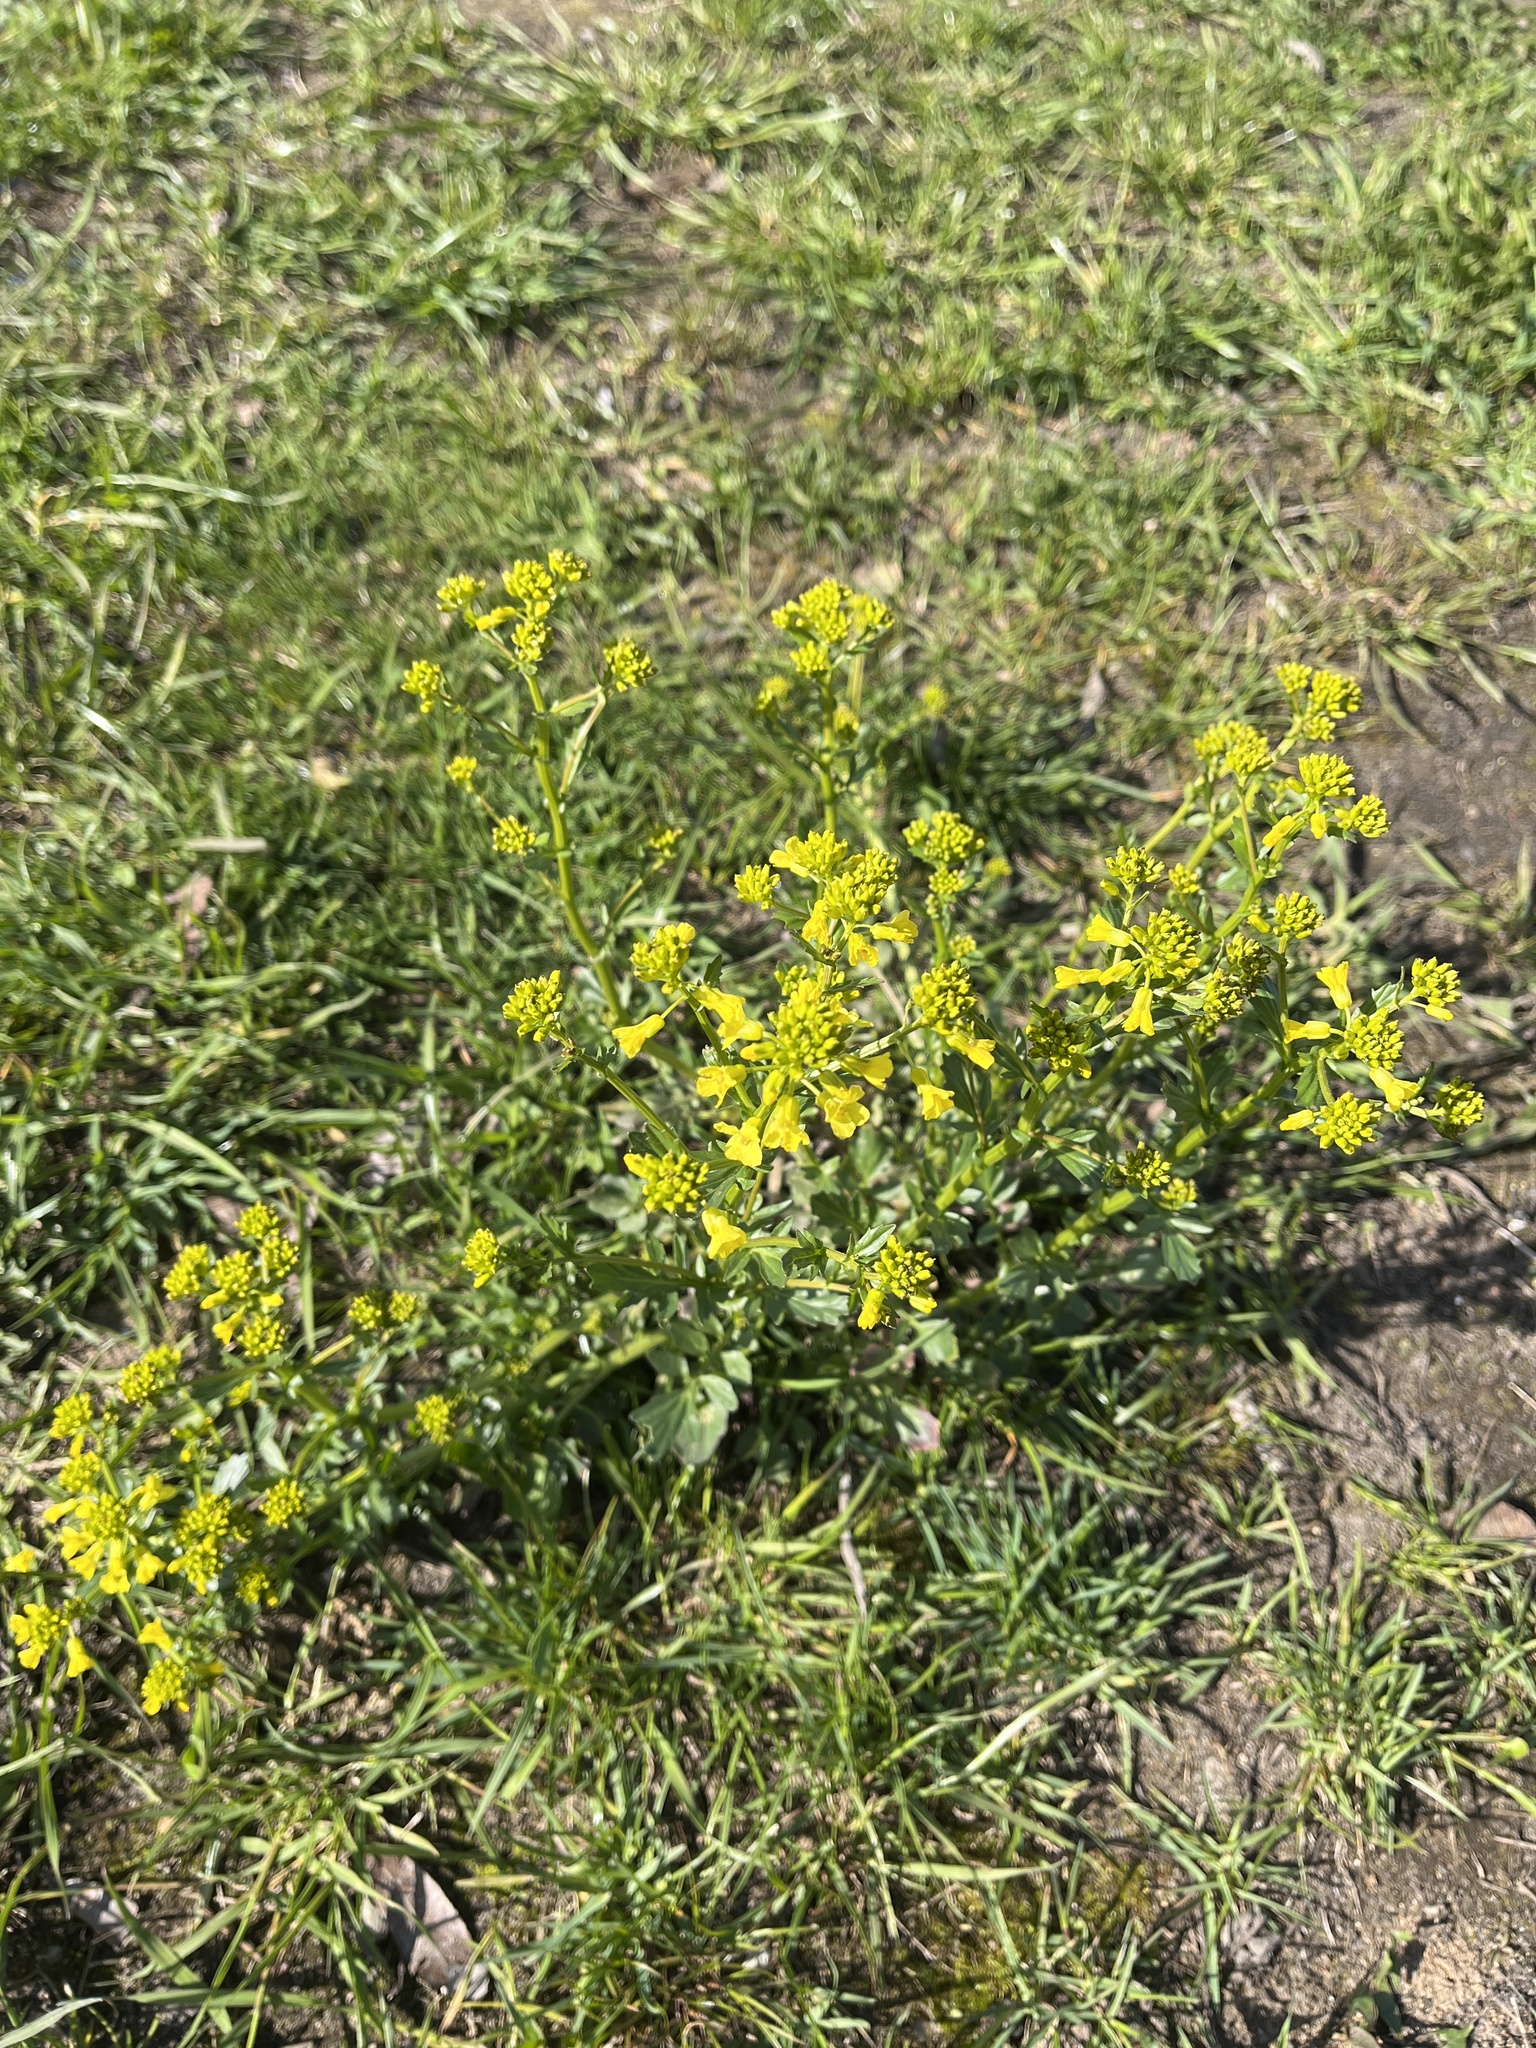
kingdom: Plantae
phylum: Tracheophyta
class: Magnoliopsida
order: Brassicales
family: Brassicaceae
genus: Barbarea
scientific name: Barbarea vulgaris
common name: Cressy-greens
